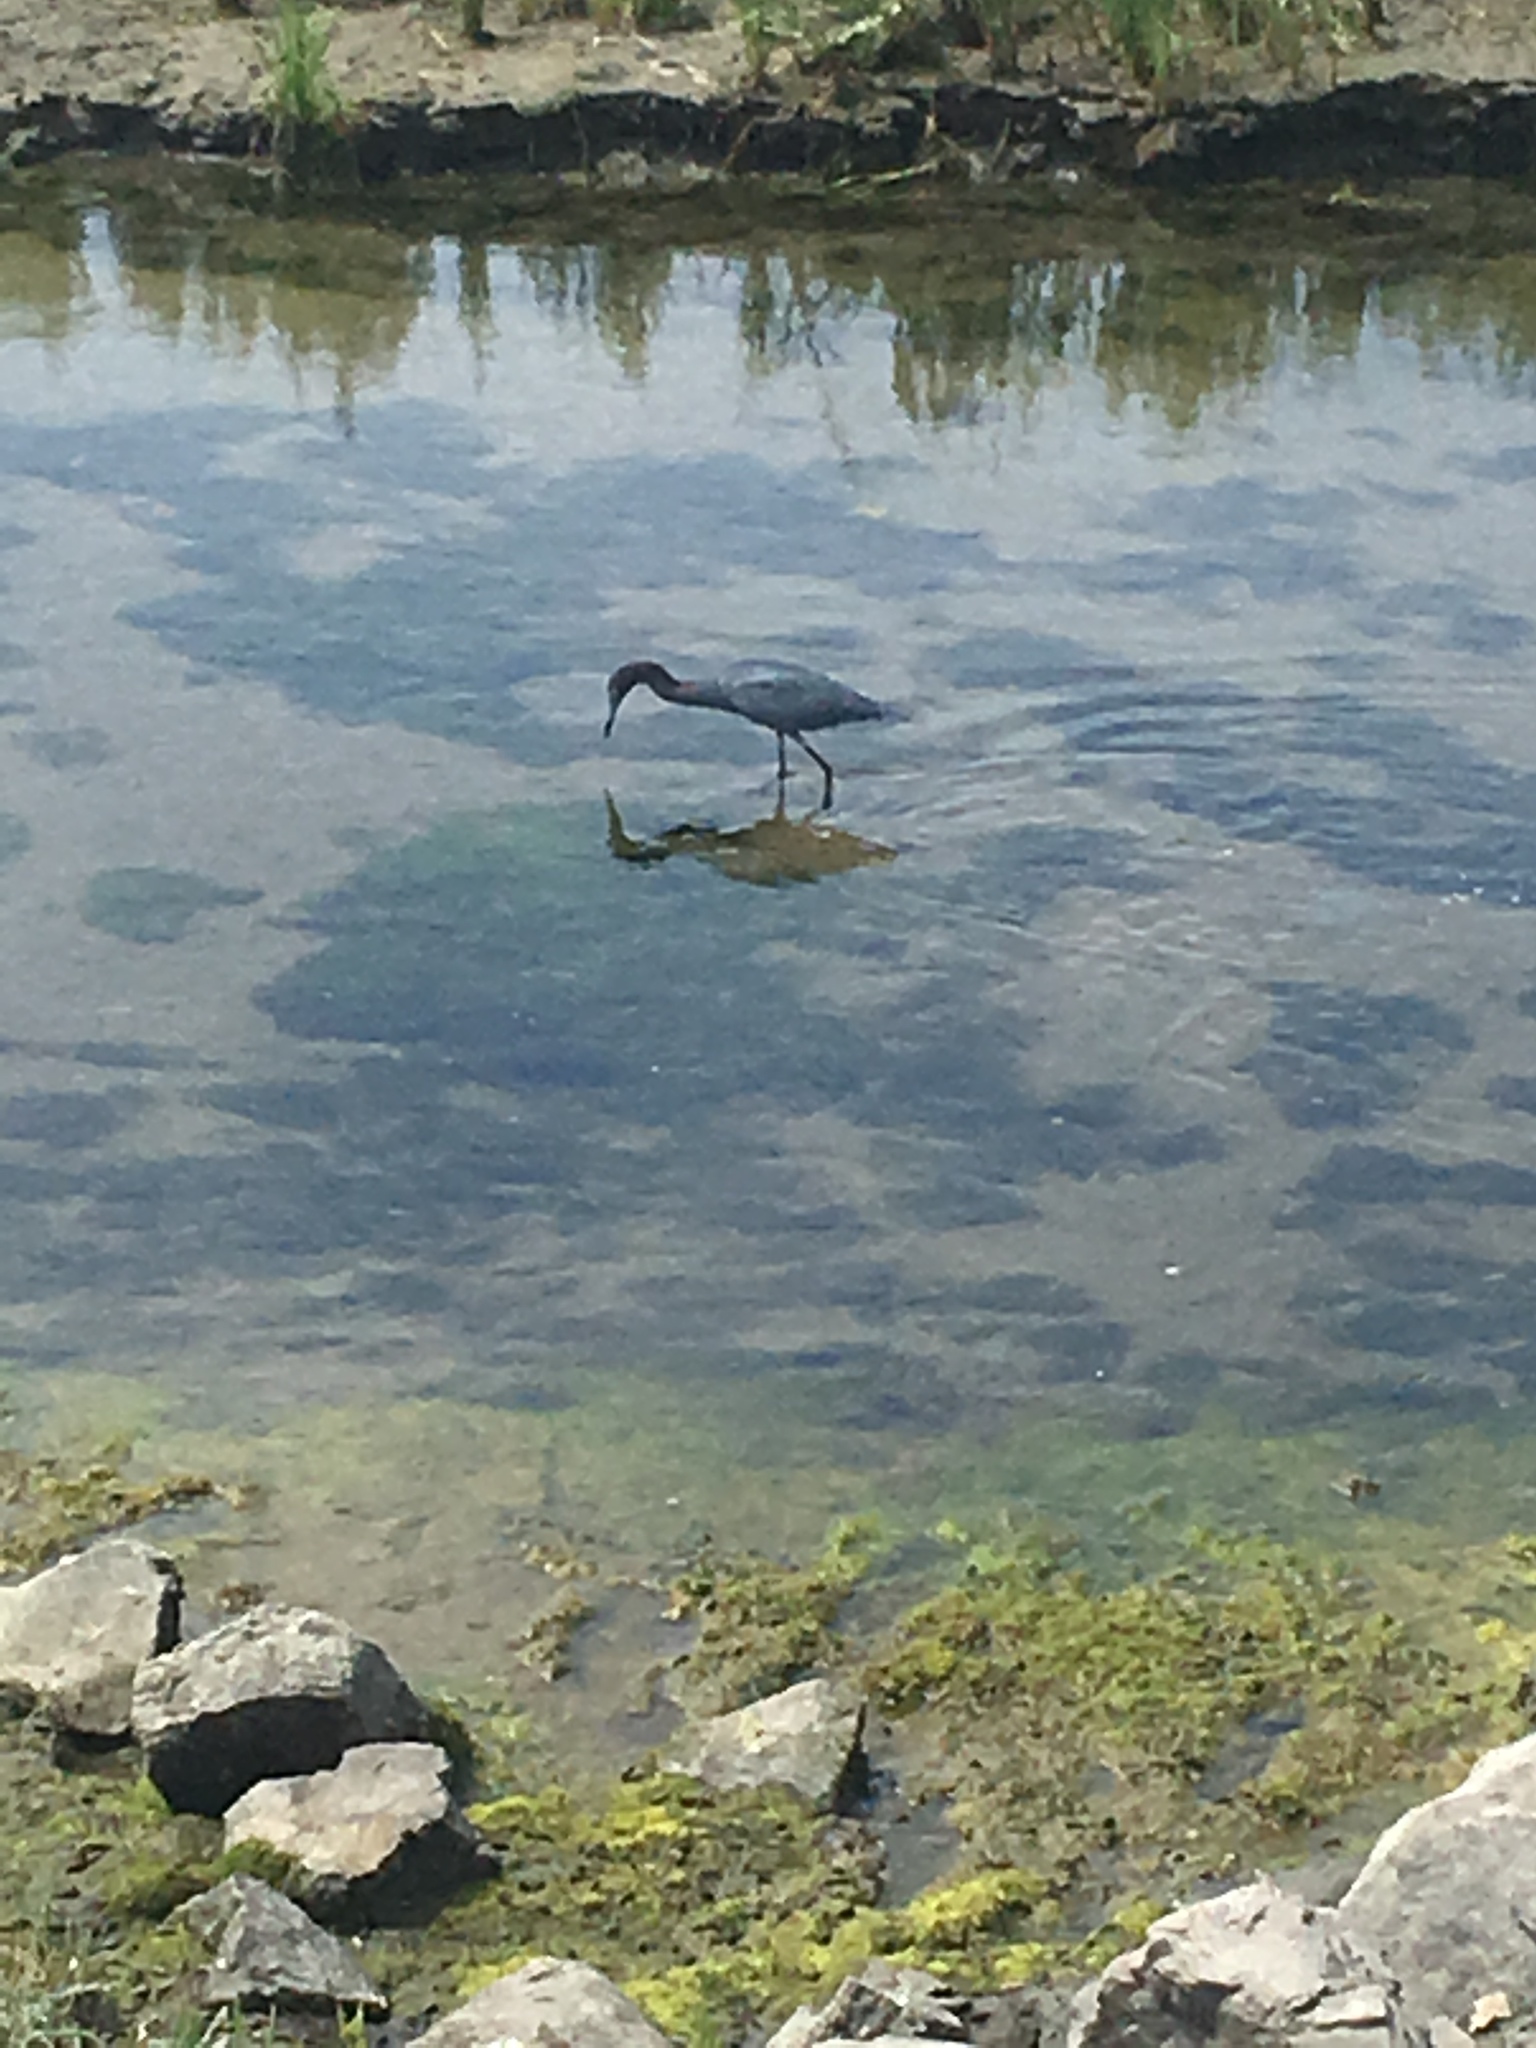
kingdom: Animalia
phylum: Chordata
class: Aves
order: Pelecaniformes
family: Ardeidae
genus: Egretta
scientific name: Egretta caerulea
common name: Little blue heron
